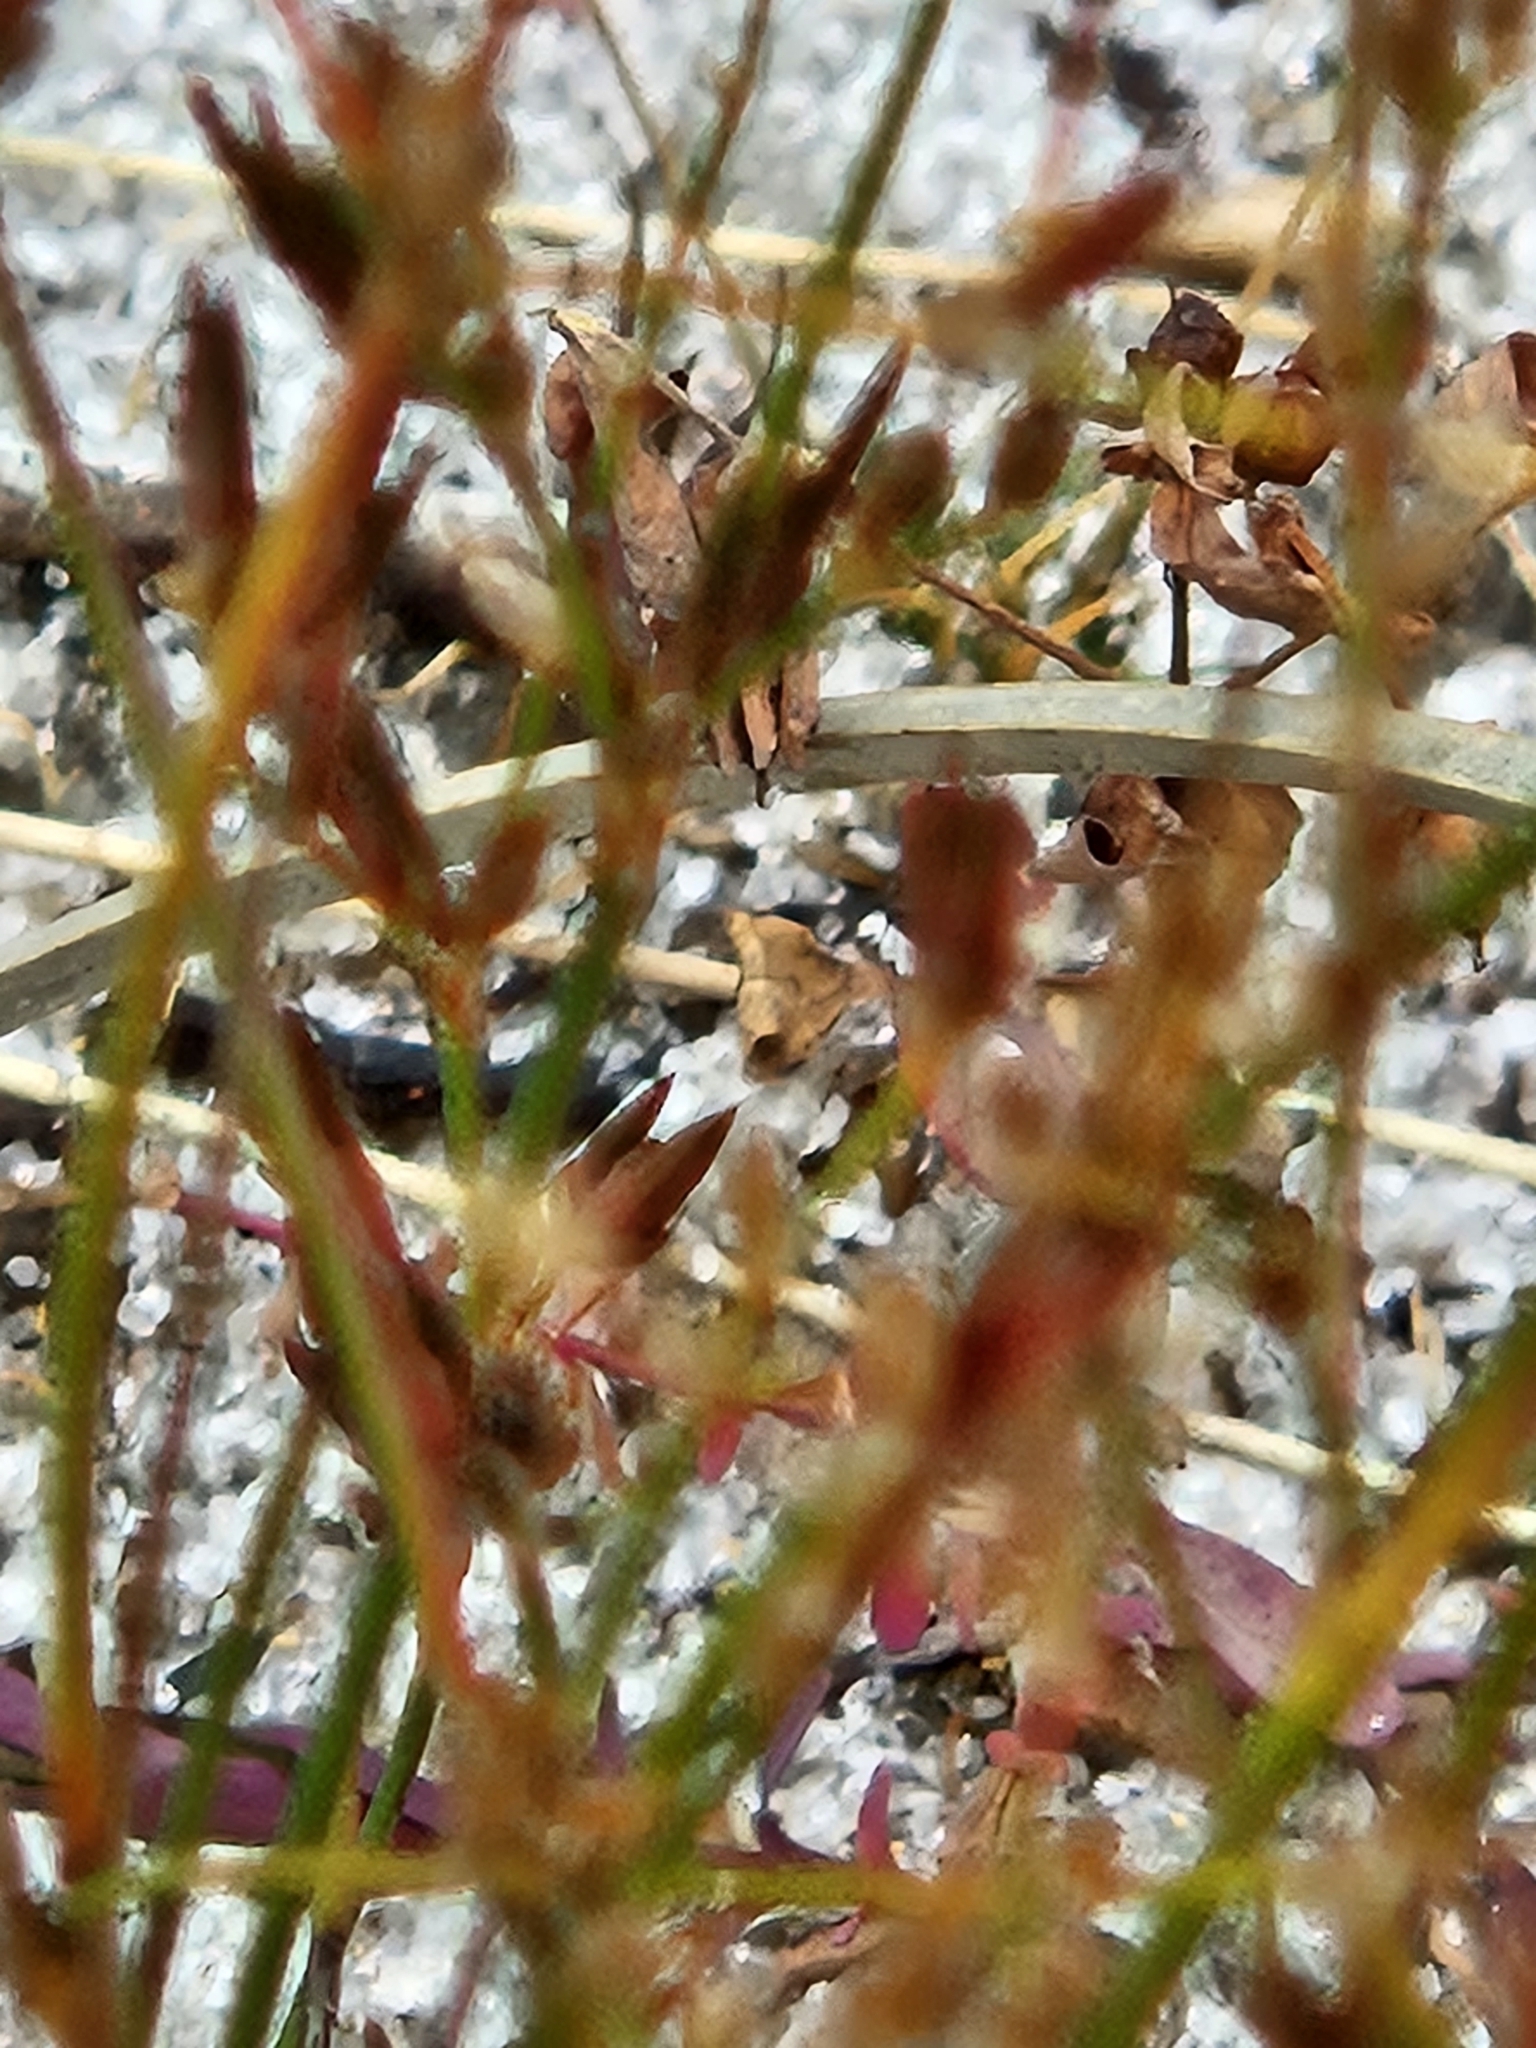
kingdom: Plantae
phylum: Tracheophyta
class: Liliopsida
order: Poales
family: Juncaceae
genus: Juncus
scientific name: Juncus pelocarpus
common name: Brown-fruited rush
